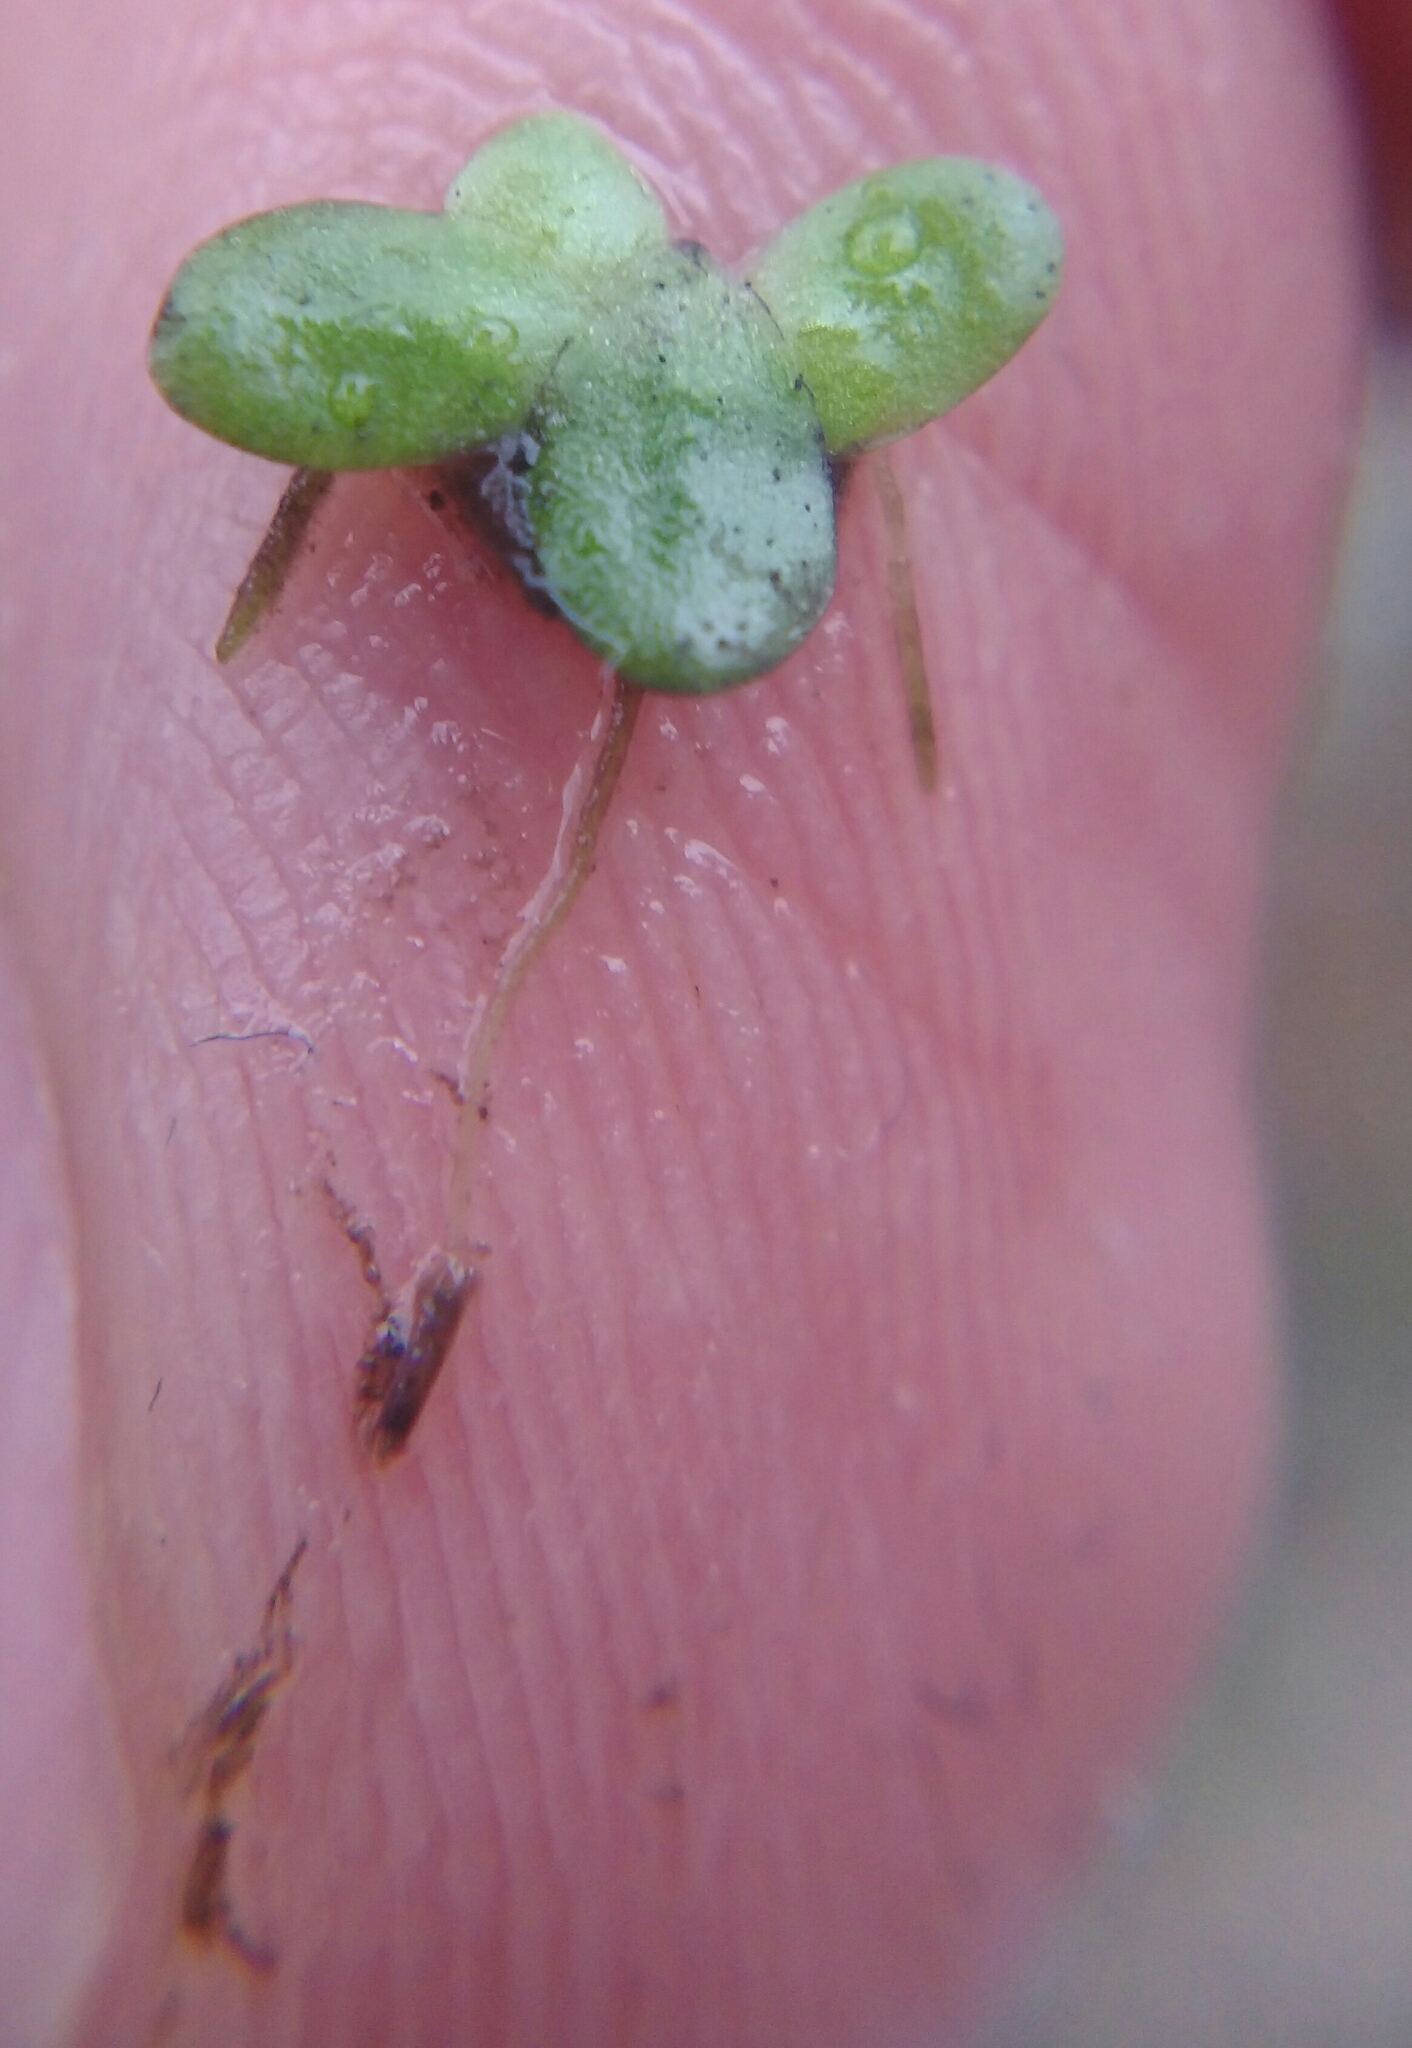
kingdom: Plantae
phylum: Tracheophyta
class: Liliopsida
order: Alismatales
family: Araceae
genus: Lemna
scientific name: Lemna minor
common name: Common duckweed
